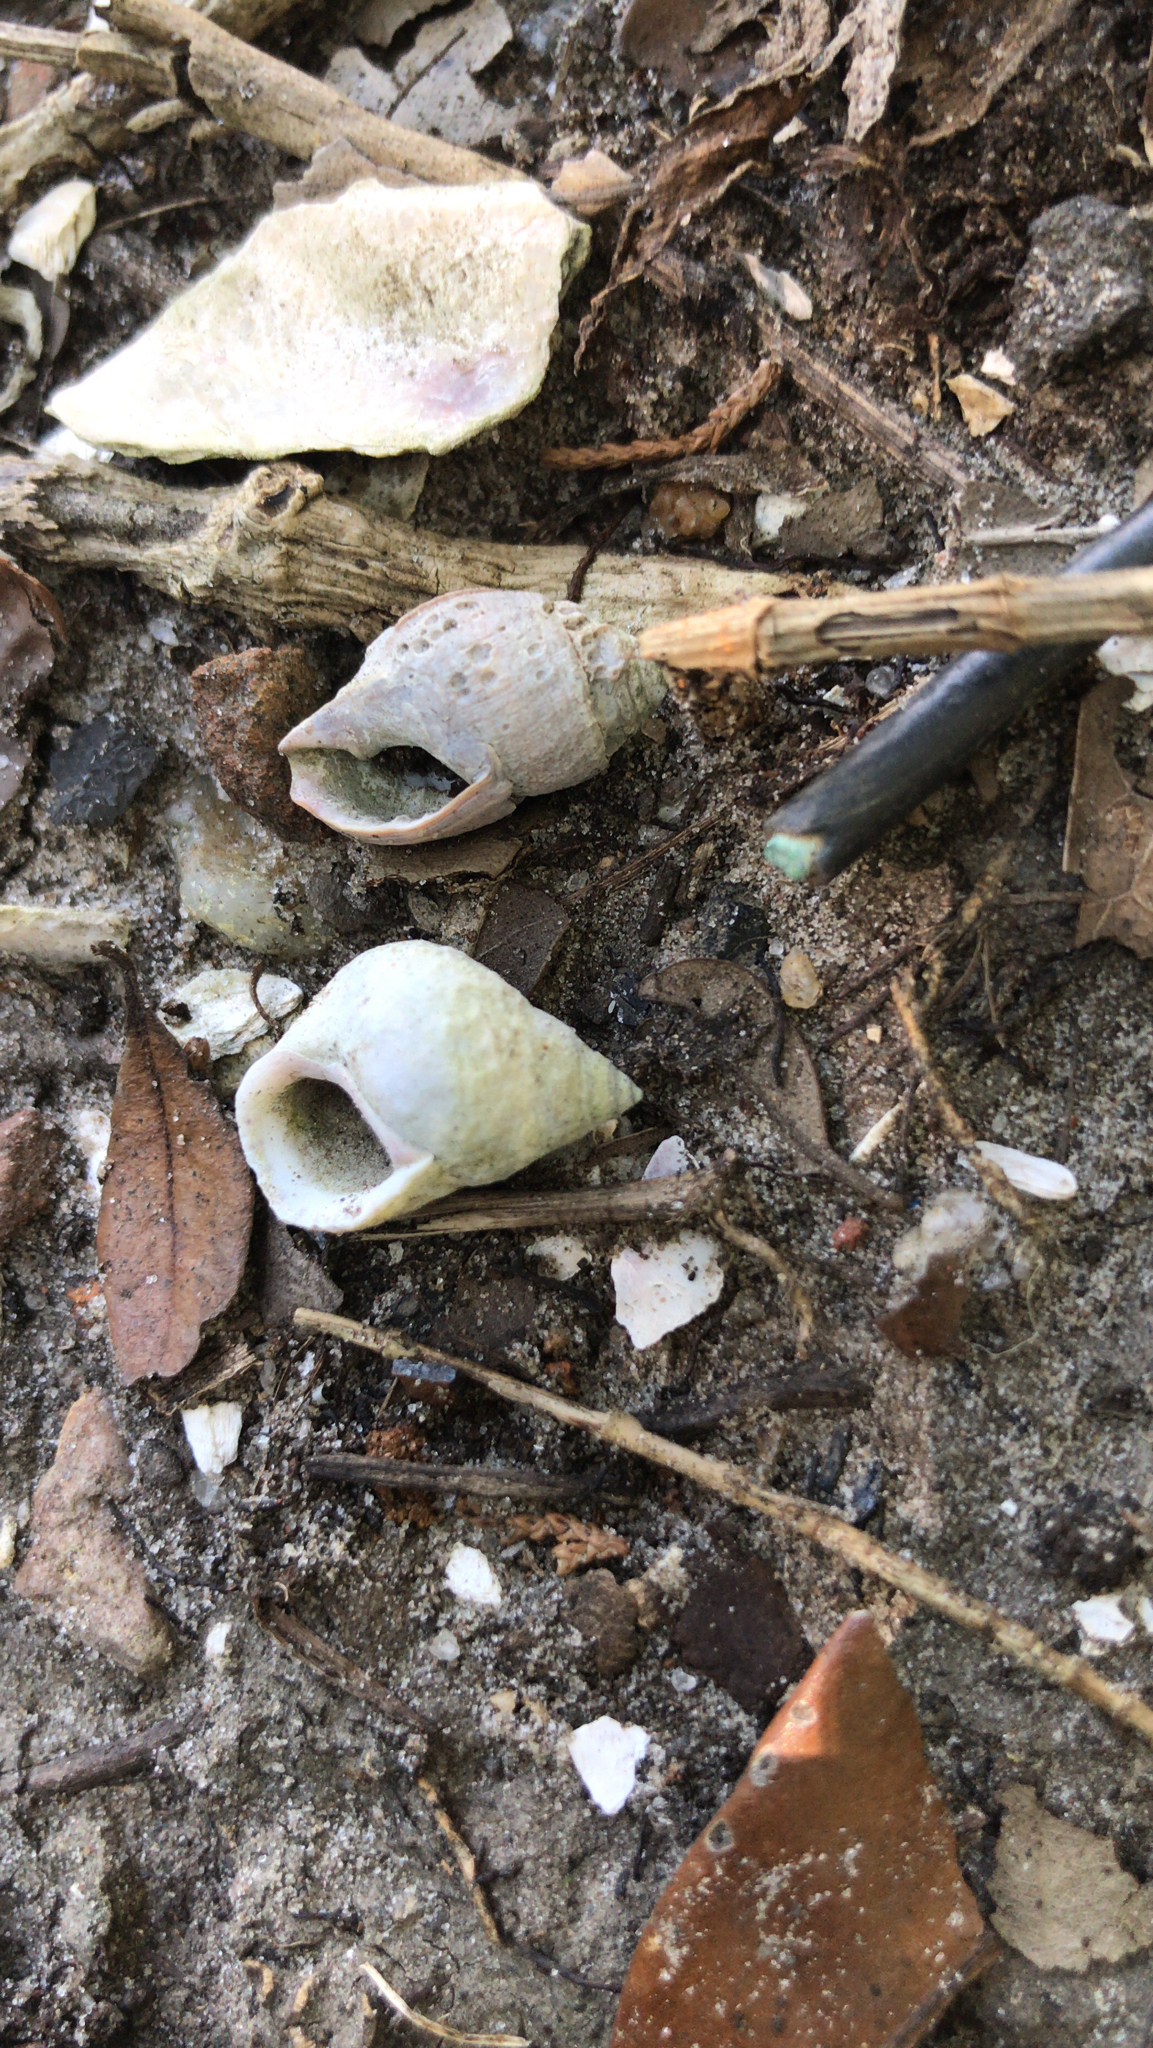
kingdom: Animalia
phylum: Mollusca
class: Gastropoda
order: Littorinimorpha
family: Littorinidae
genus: Littoraria
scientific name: Littoraria irrorata
